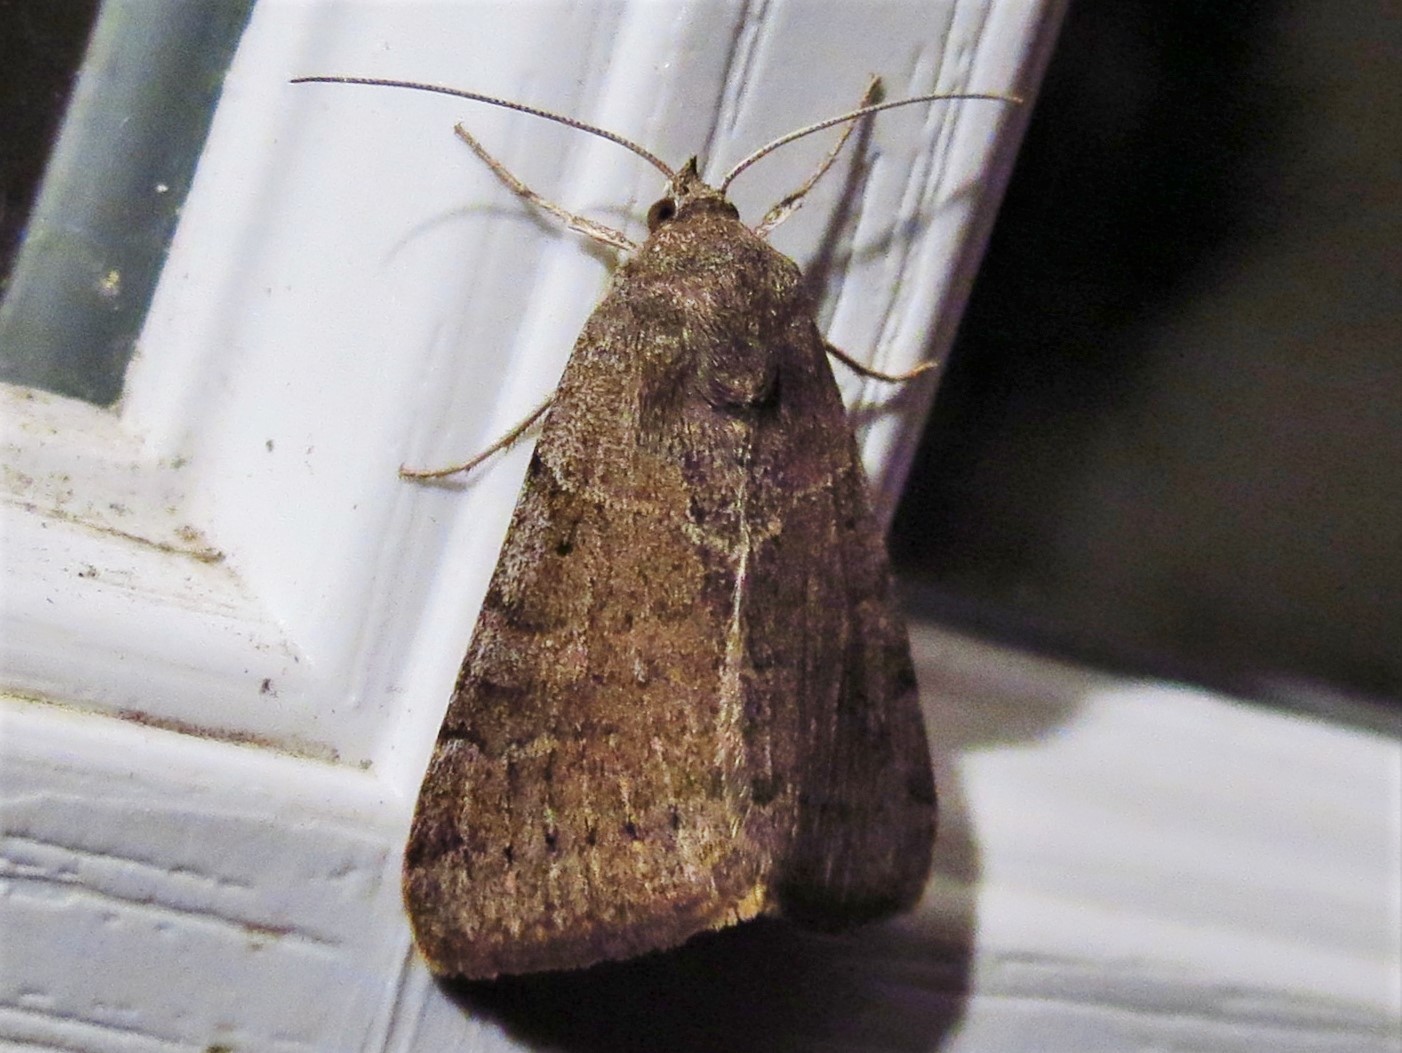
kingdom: Animalia
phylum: Arthropoda
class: Insecta
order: Lepidoptera
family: Erebidae
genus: Caenurgina
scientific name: Caenurgina erechtea
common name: Forage looper moth
